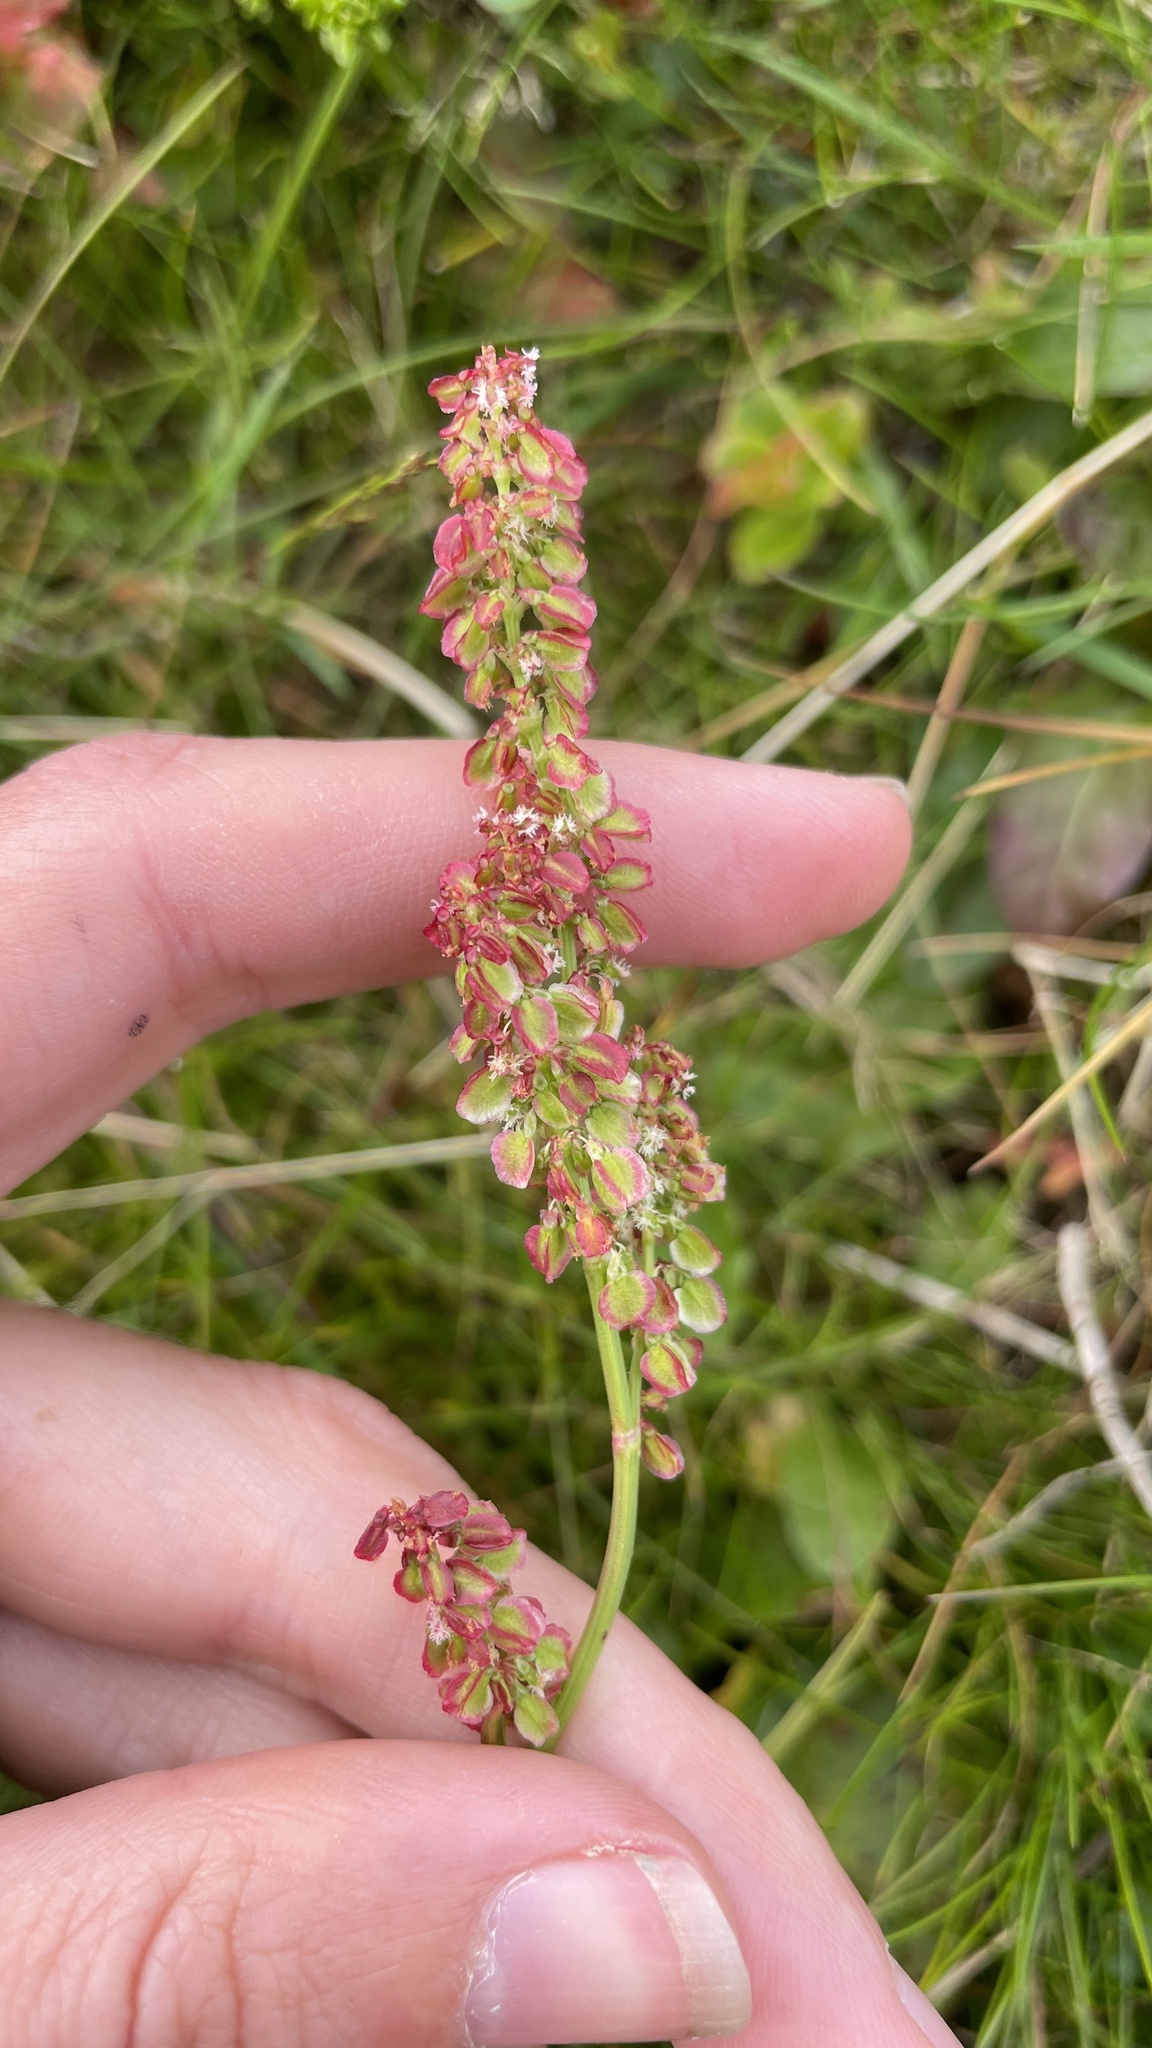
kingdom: Plantae
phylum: Tracheophyta
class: Magnoliopsida
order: Caryophyllales
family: Polygonaceae
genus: Rumex
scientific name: Rumex acetosa
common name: Garden sorrel
